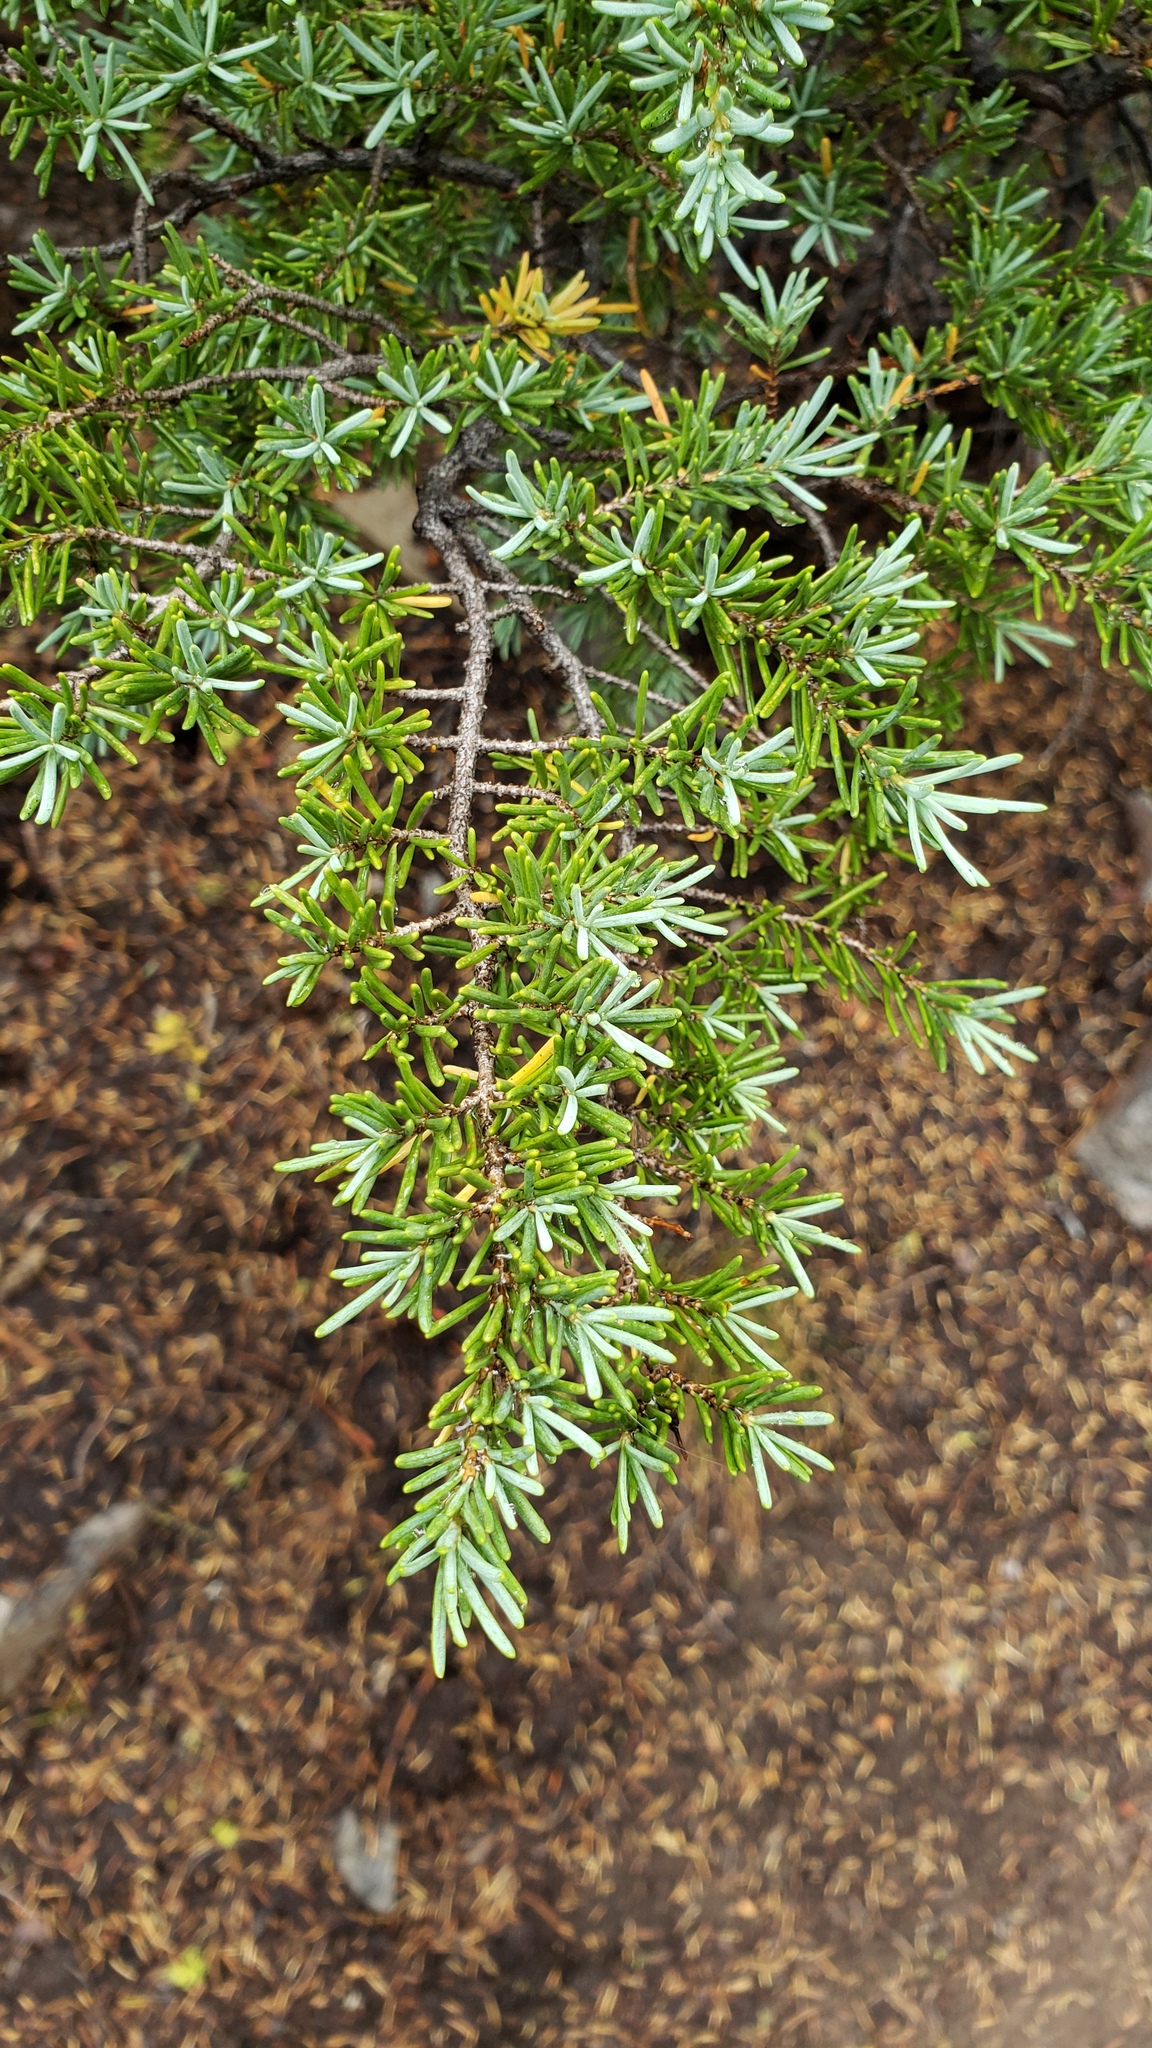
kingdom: Plantae
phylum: Tracheophyta
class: Pinopsida
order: Pinales
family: Pinaceae
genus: Tsuga
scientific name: Tsuga mertensiana
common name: Mountain hemlock
